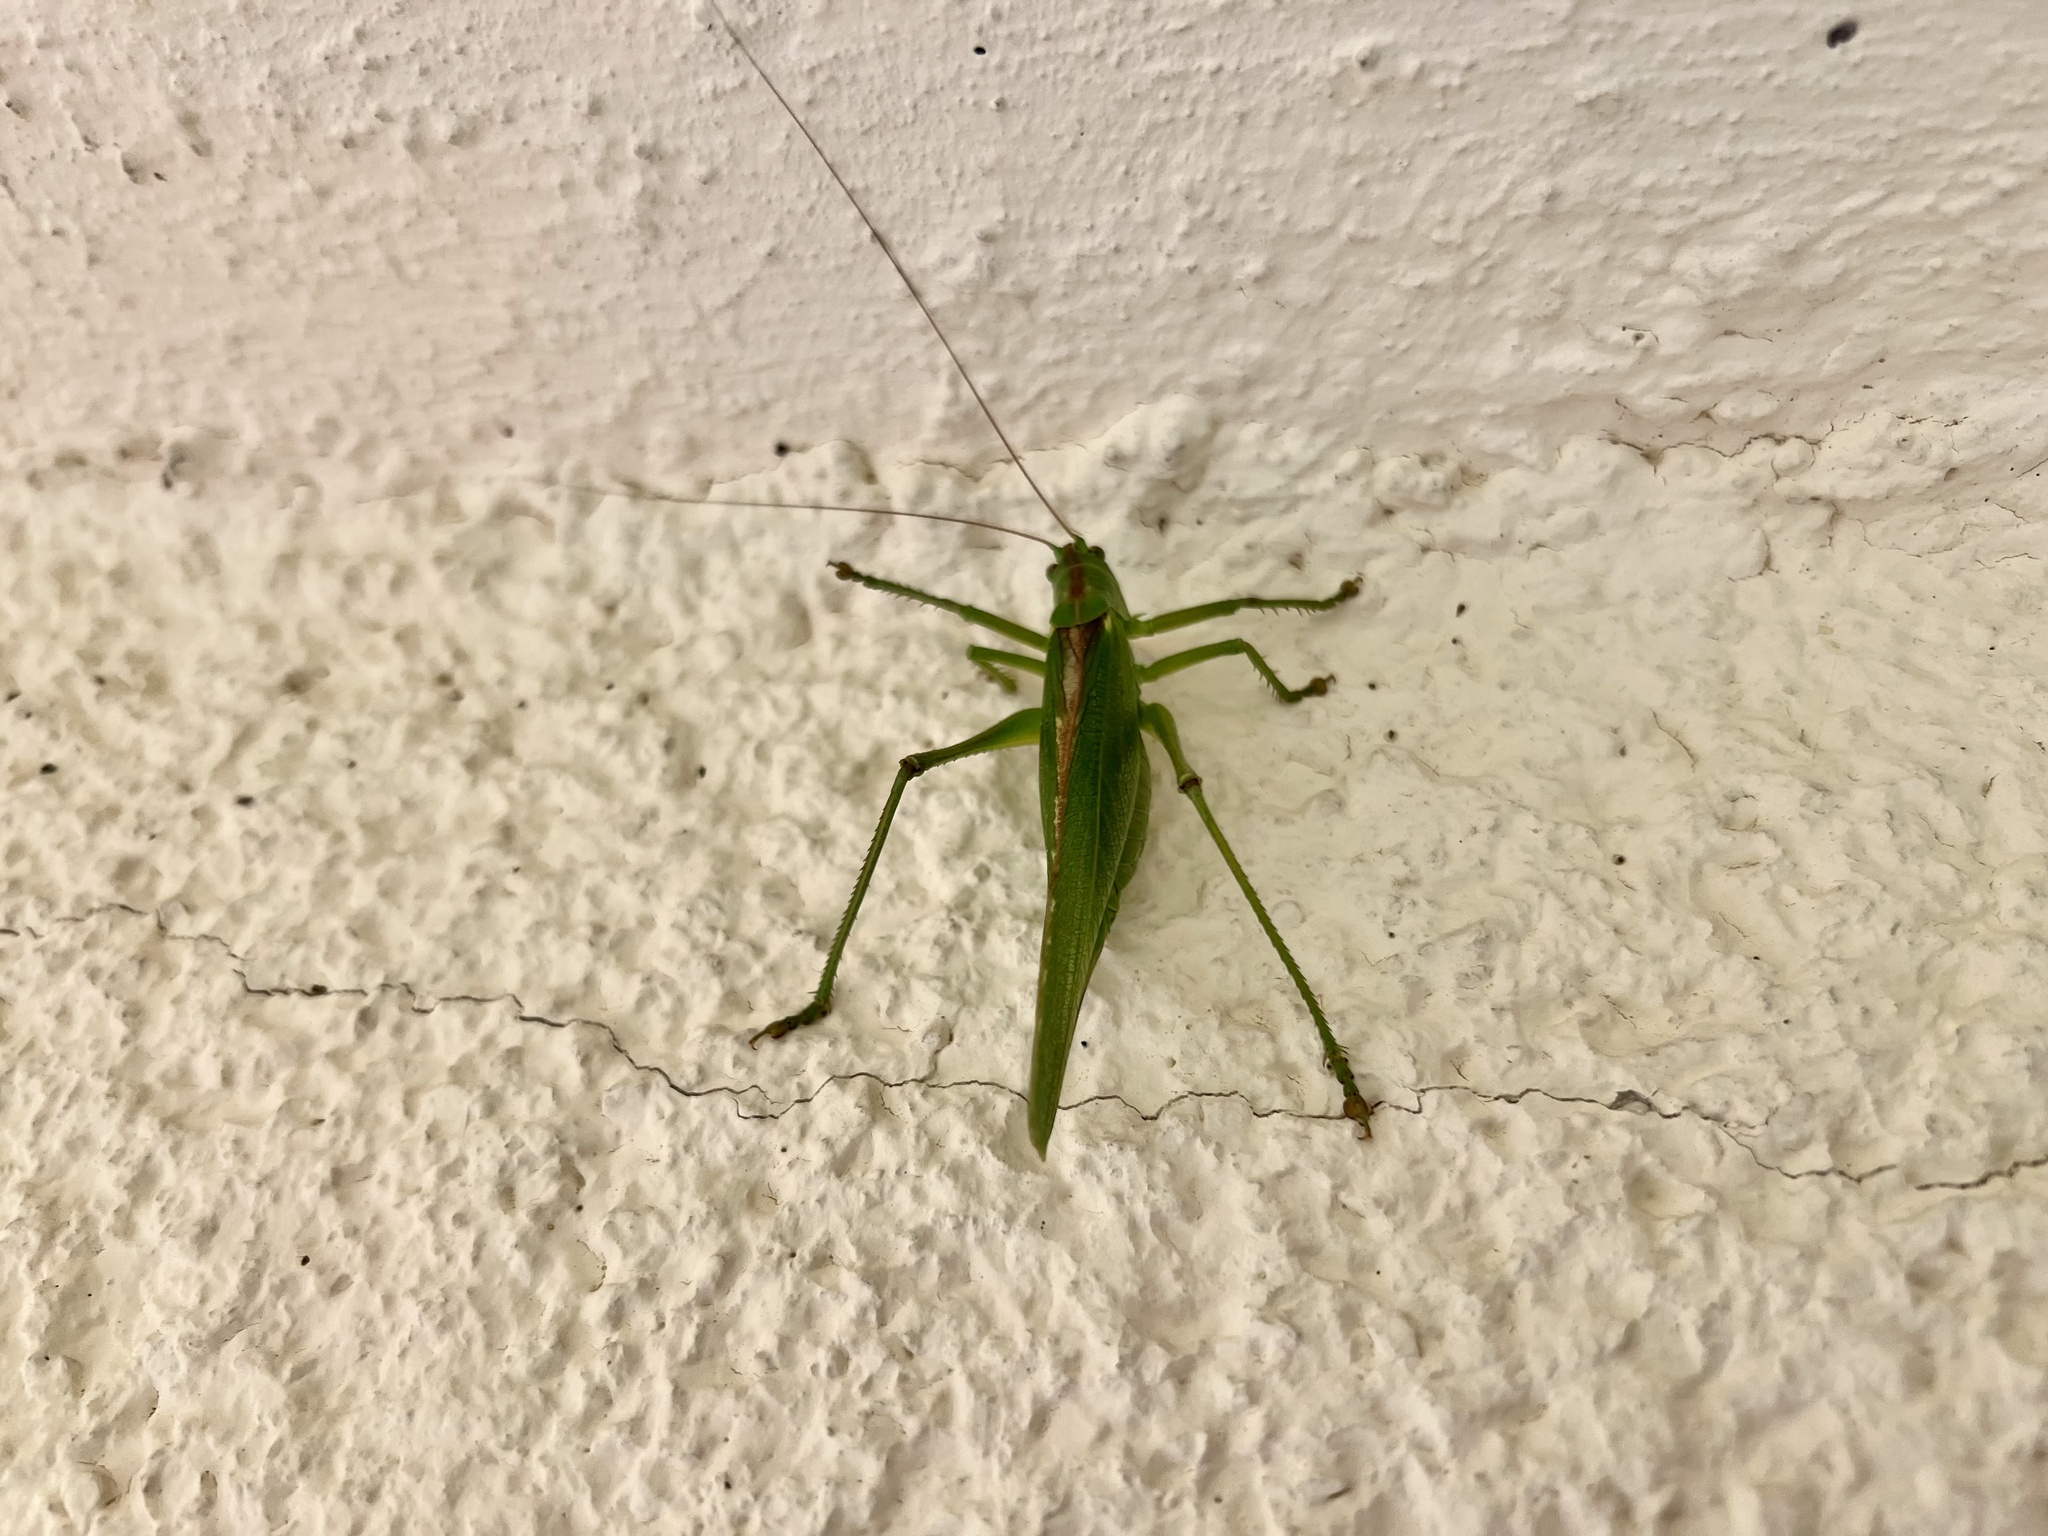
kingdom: Animalia
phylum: Arthropoda
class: Insecta
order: Orthoptera
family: Tettigoniidae
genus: Tettigonia
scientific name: Tettigonia viridissima
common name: Great green bush-cricket
